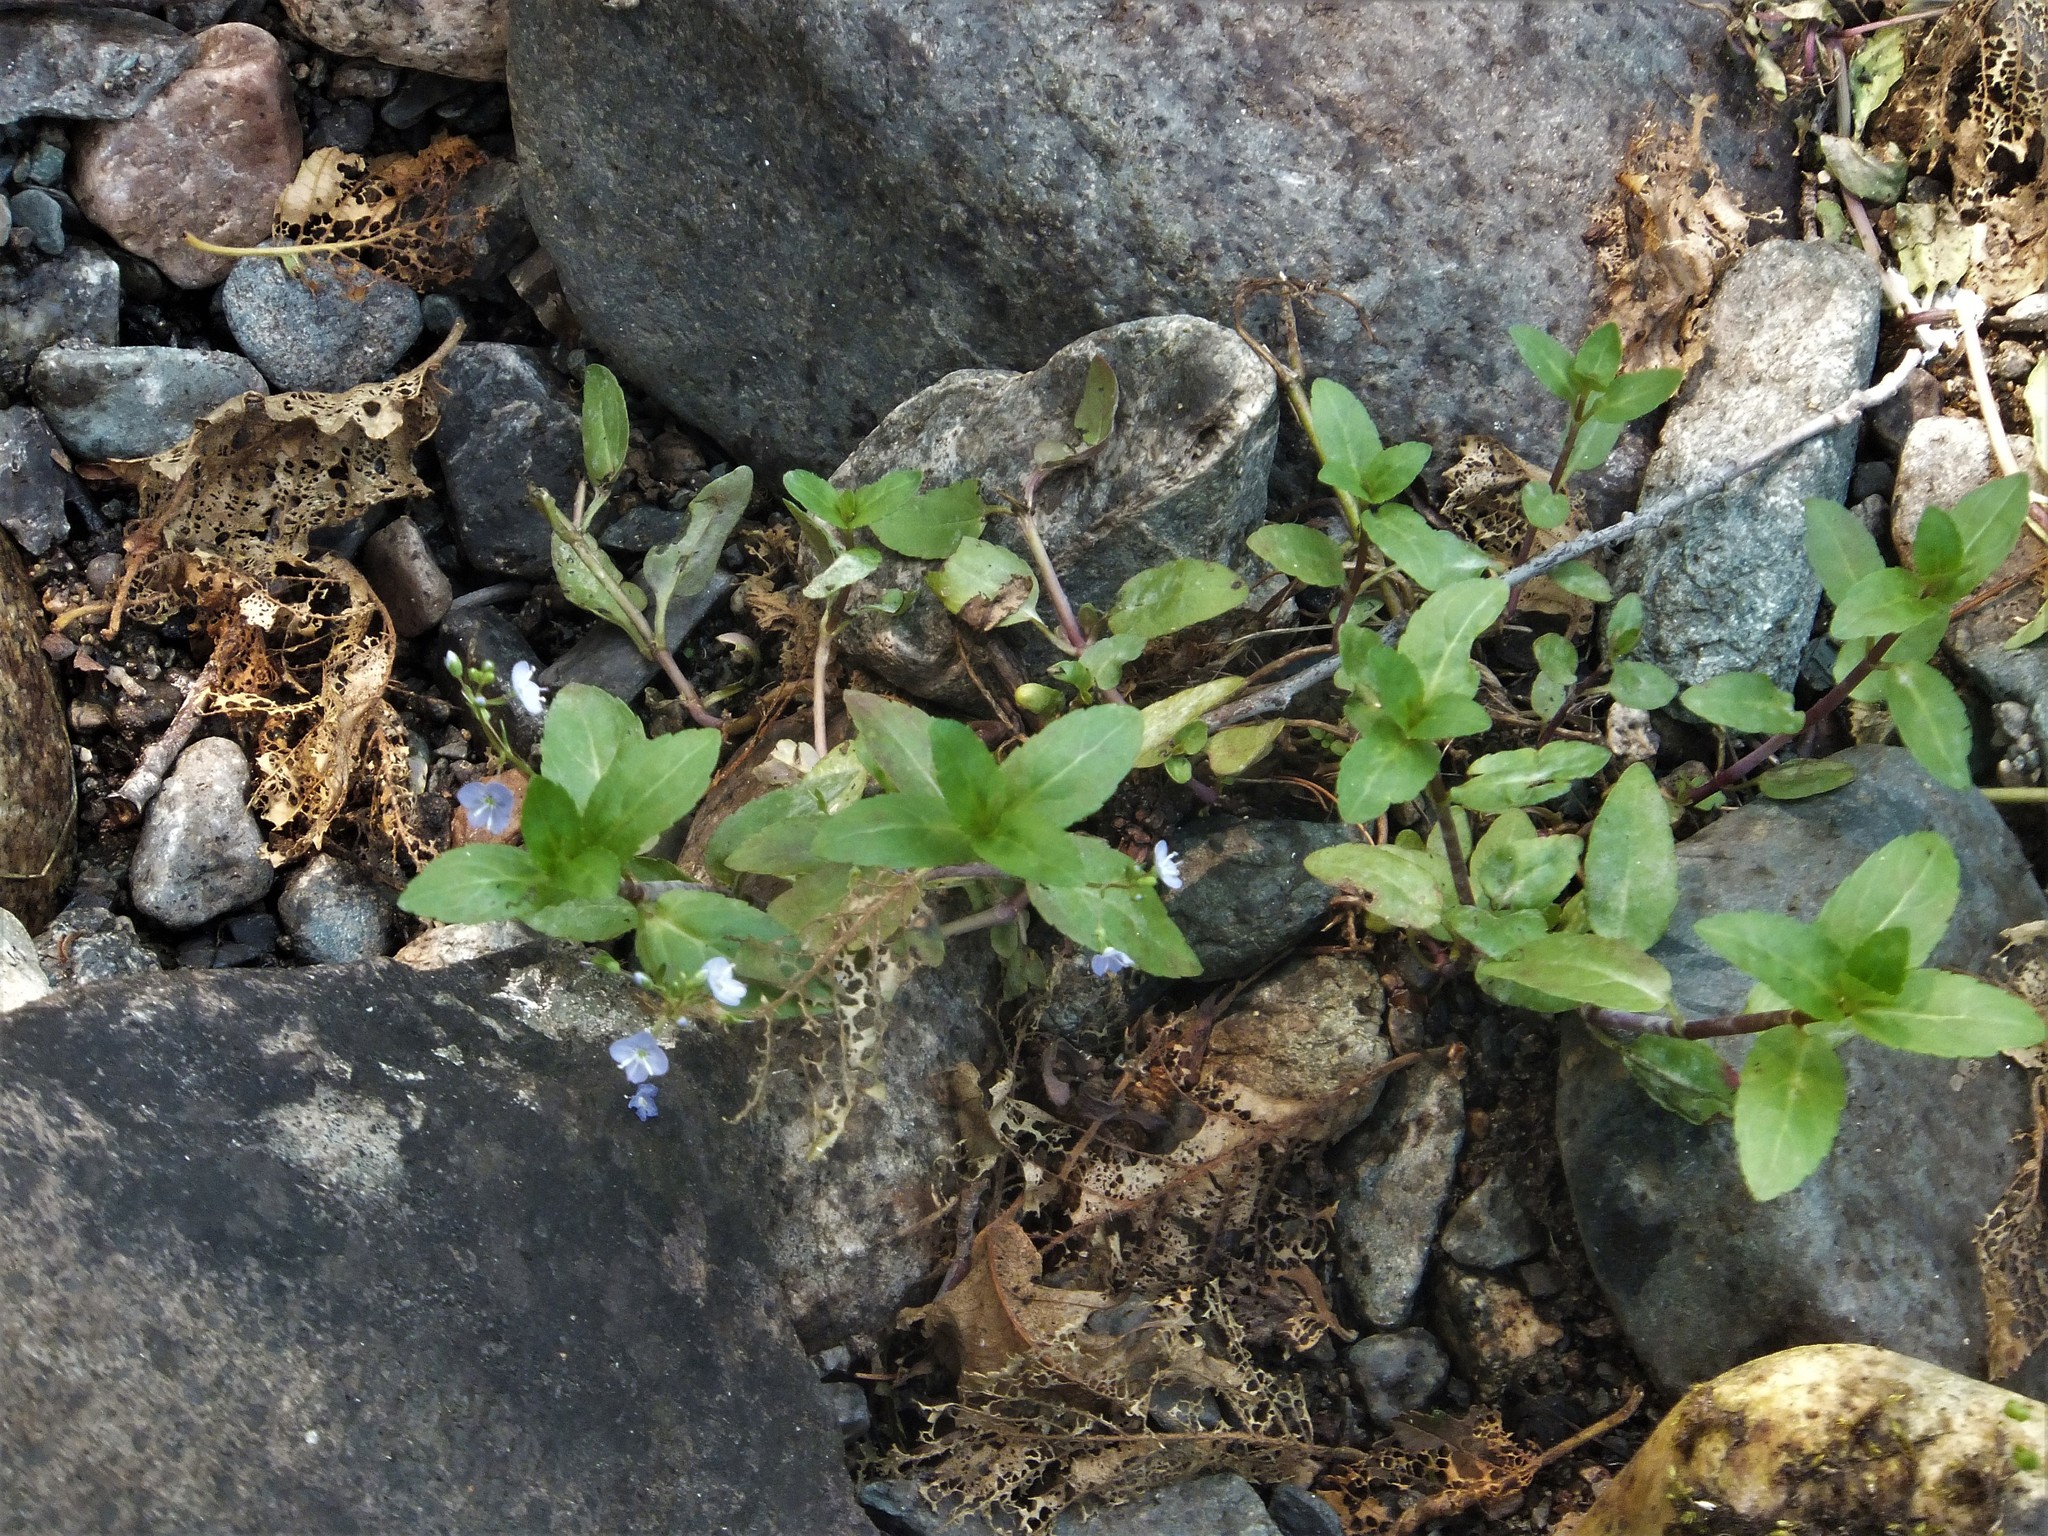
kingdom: Plantae
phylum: Tracheophyta
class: Magnoliopsida
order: Lamiales
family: Plantaginaceae
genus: Veronica
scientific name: Veronica americana
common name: American brooklime
